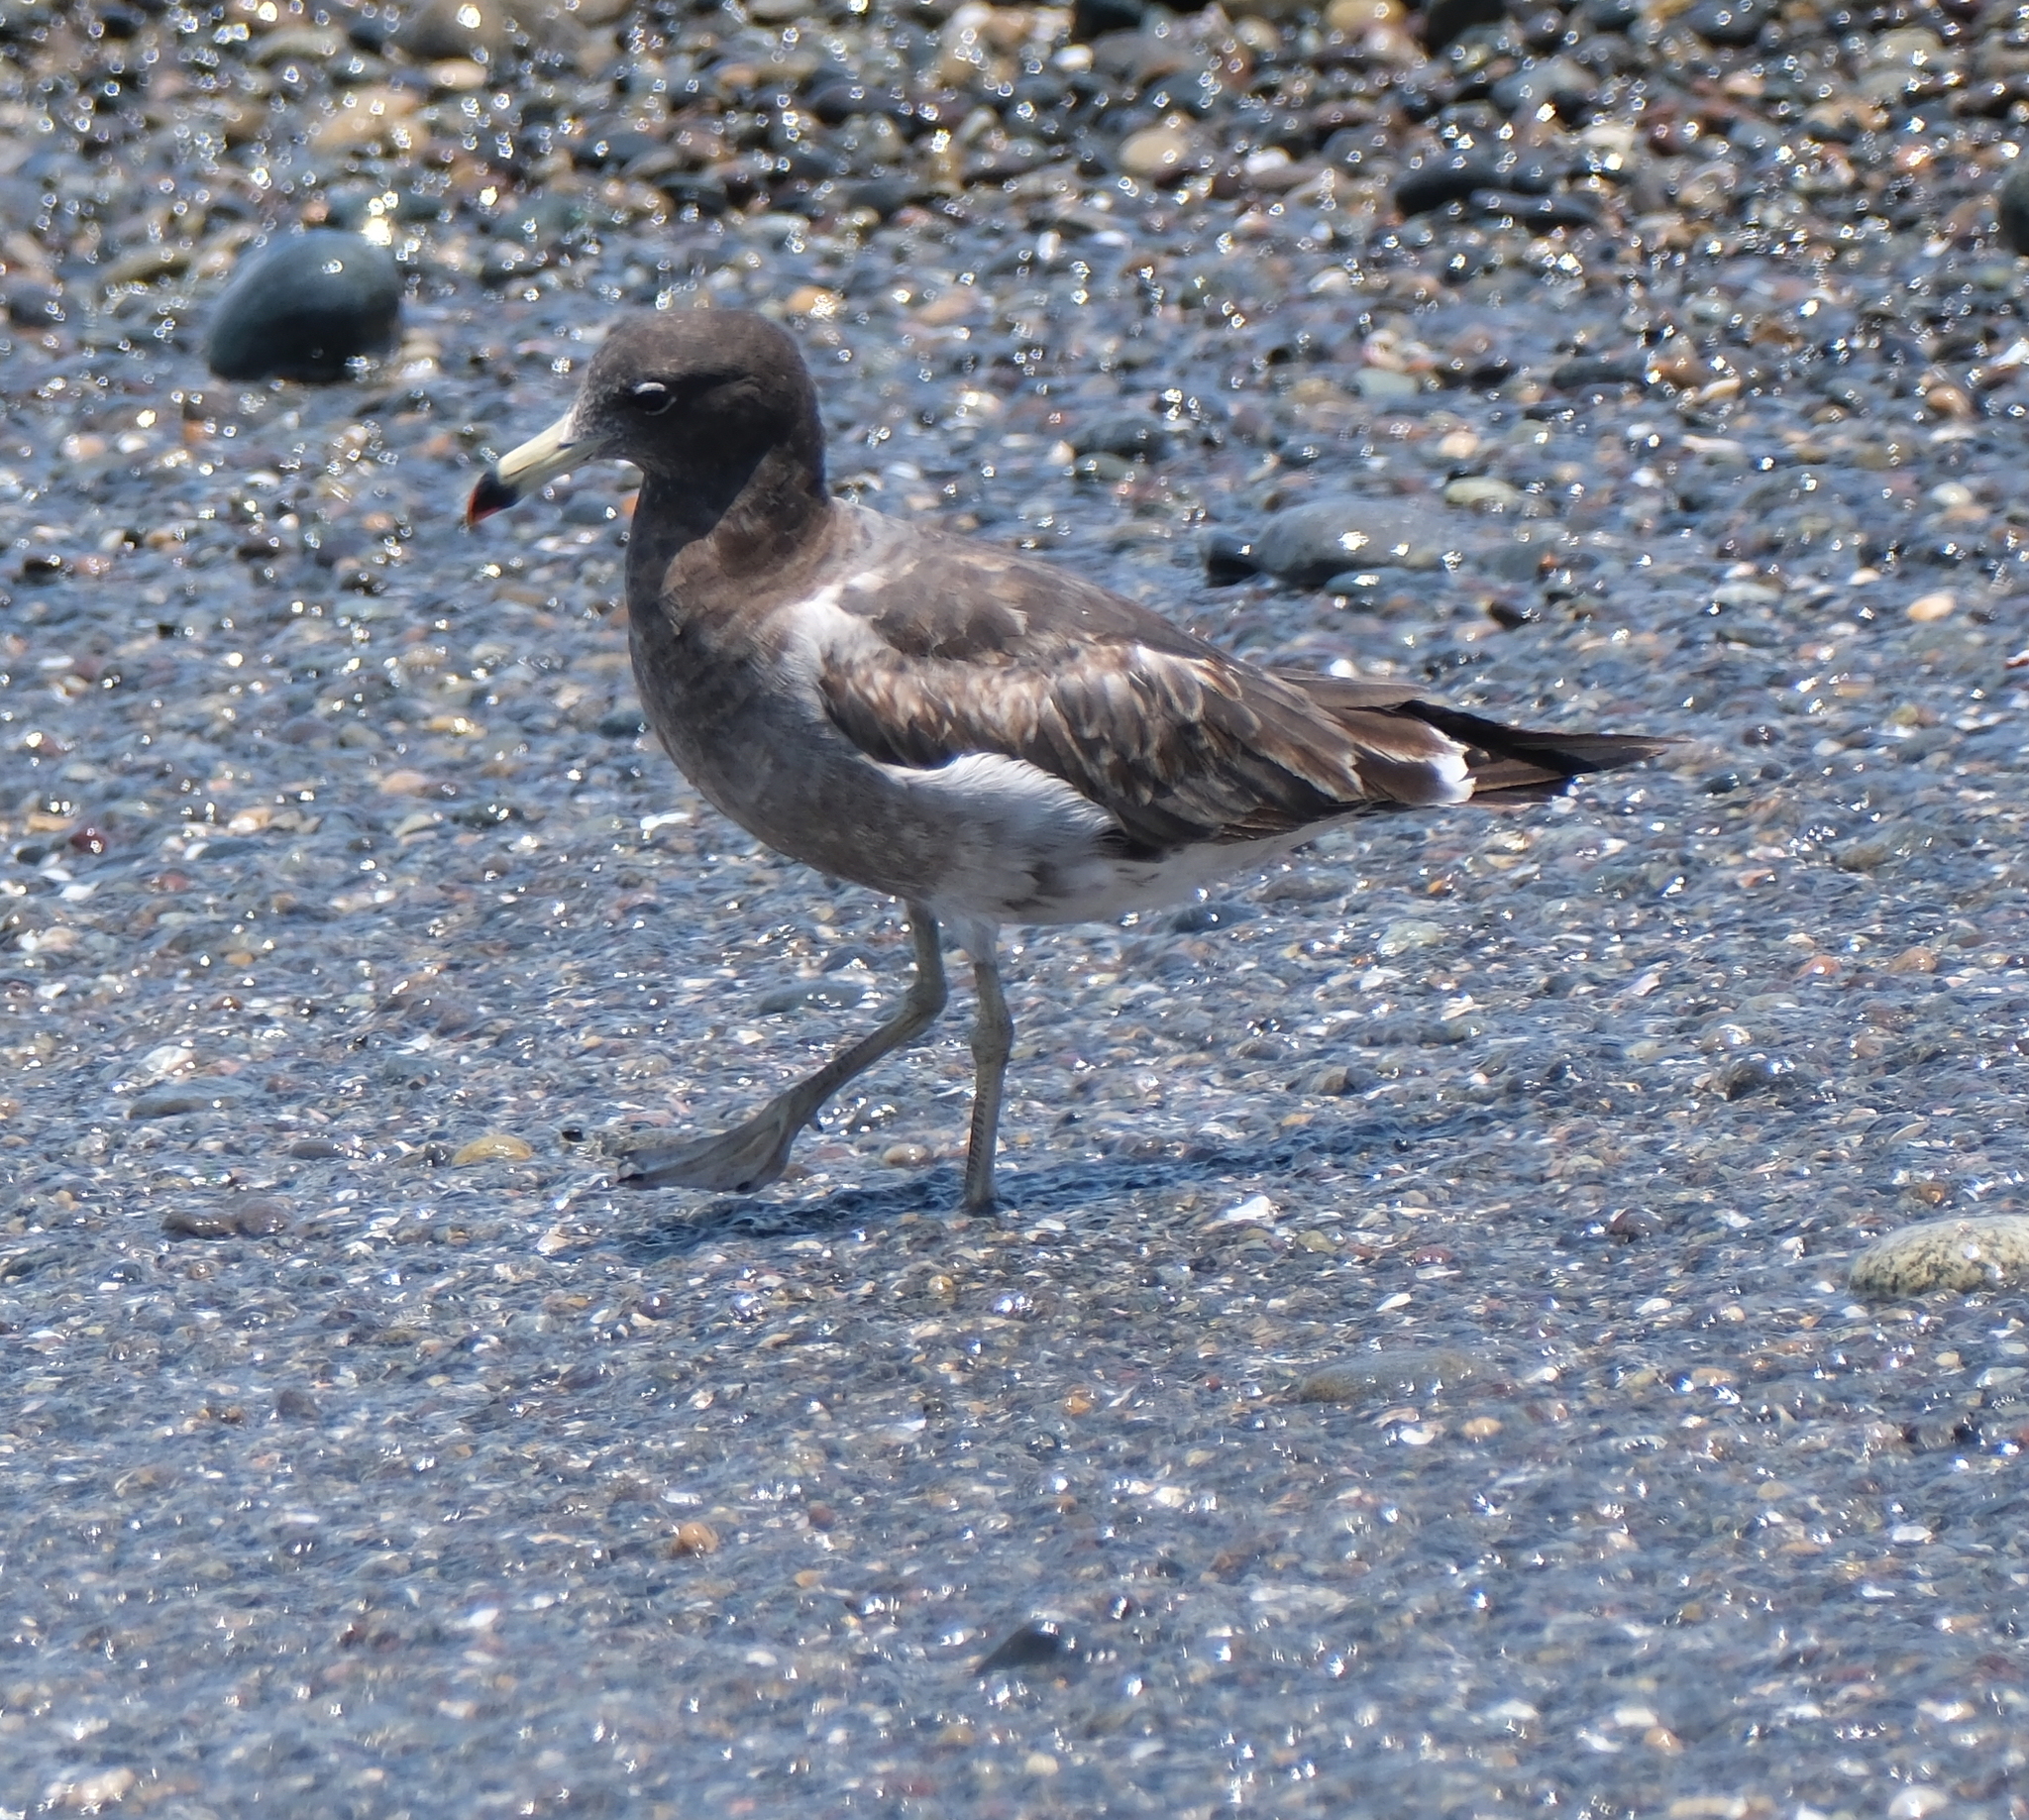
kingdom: Animalia
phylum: Chordata
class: Aves
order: Charadriiformes
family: Laridae
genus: Larus
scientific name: Larus belcheri
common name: Belcher's gull
